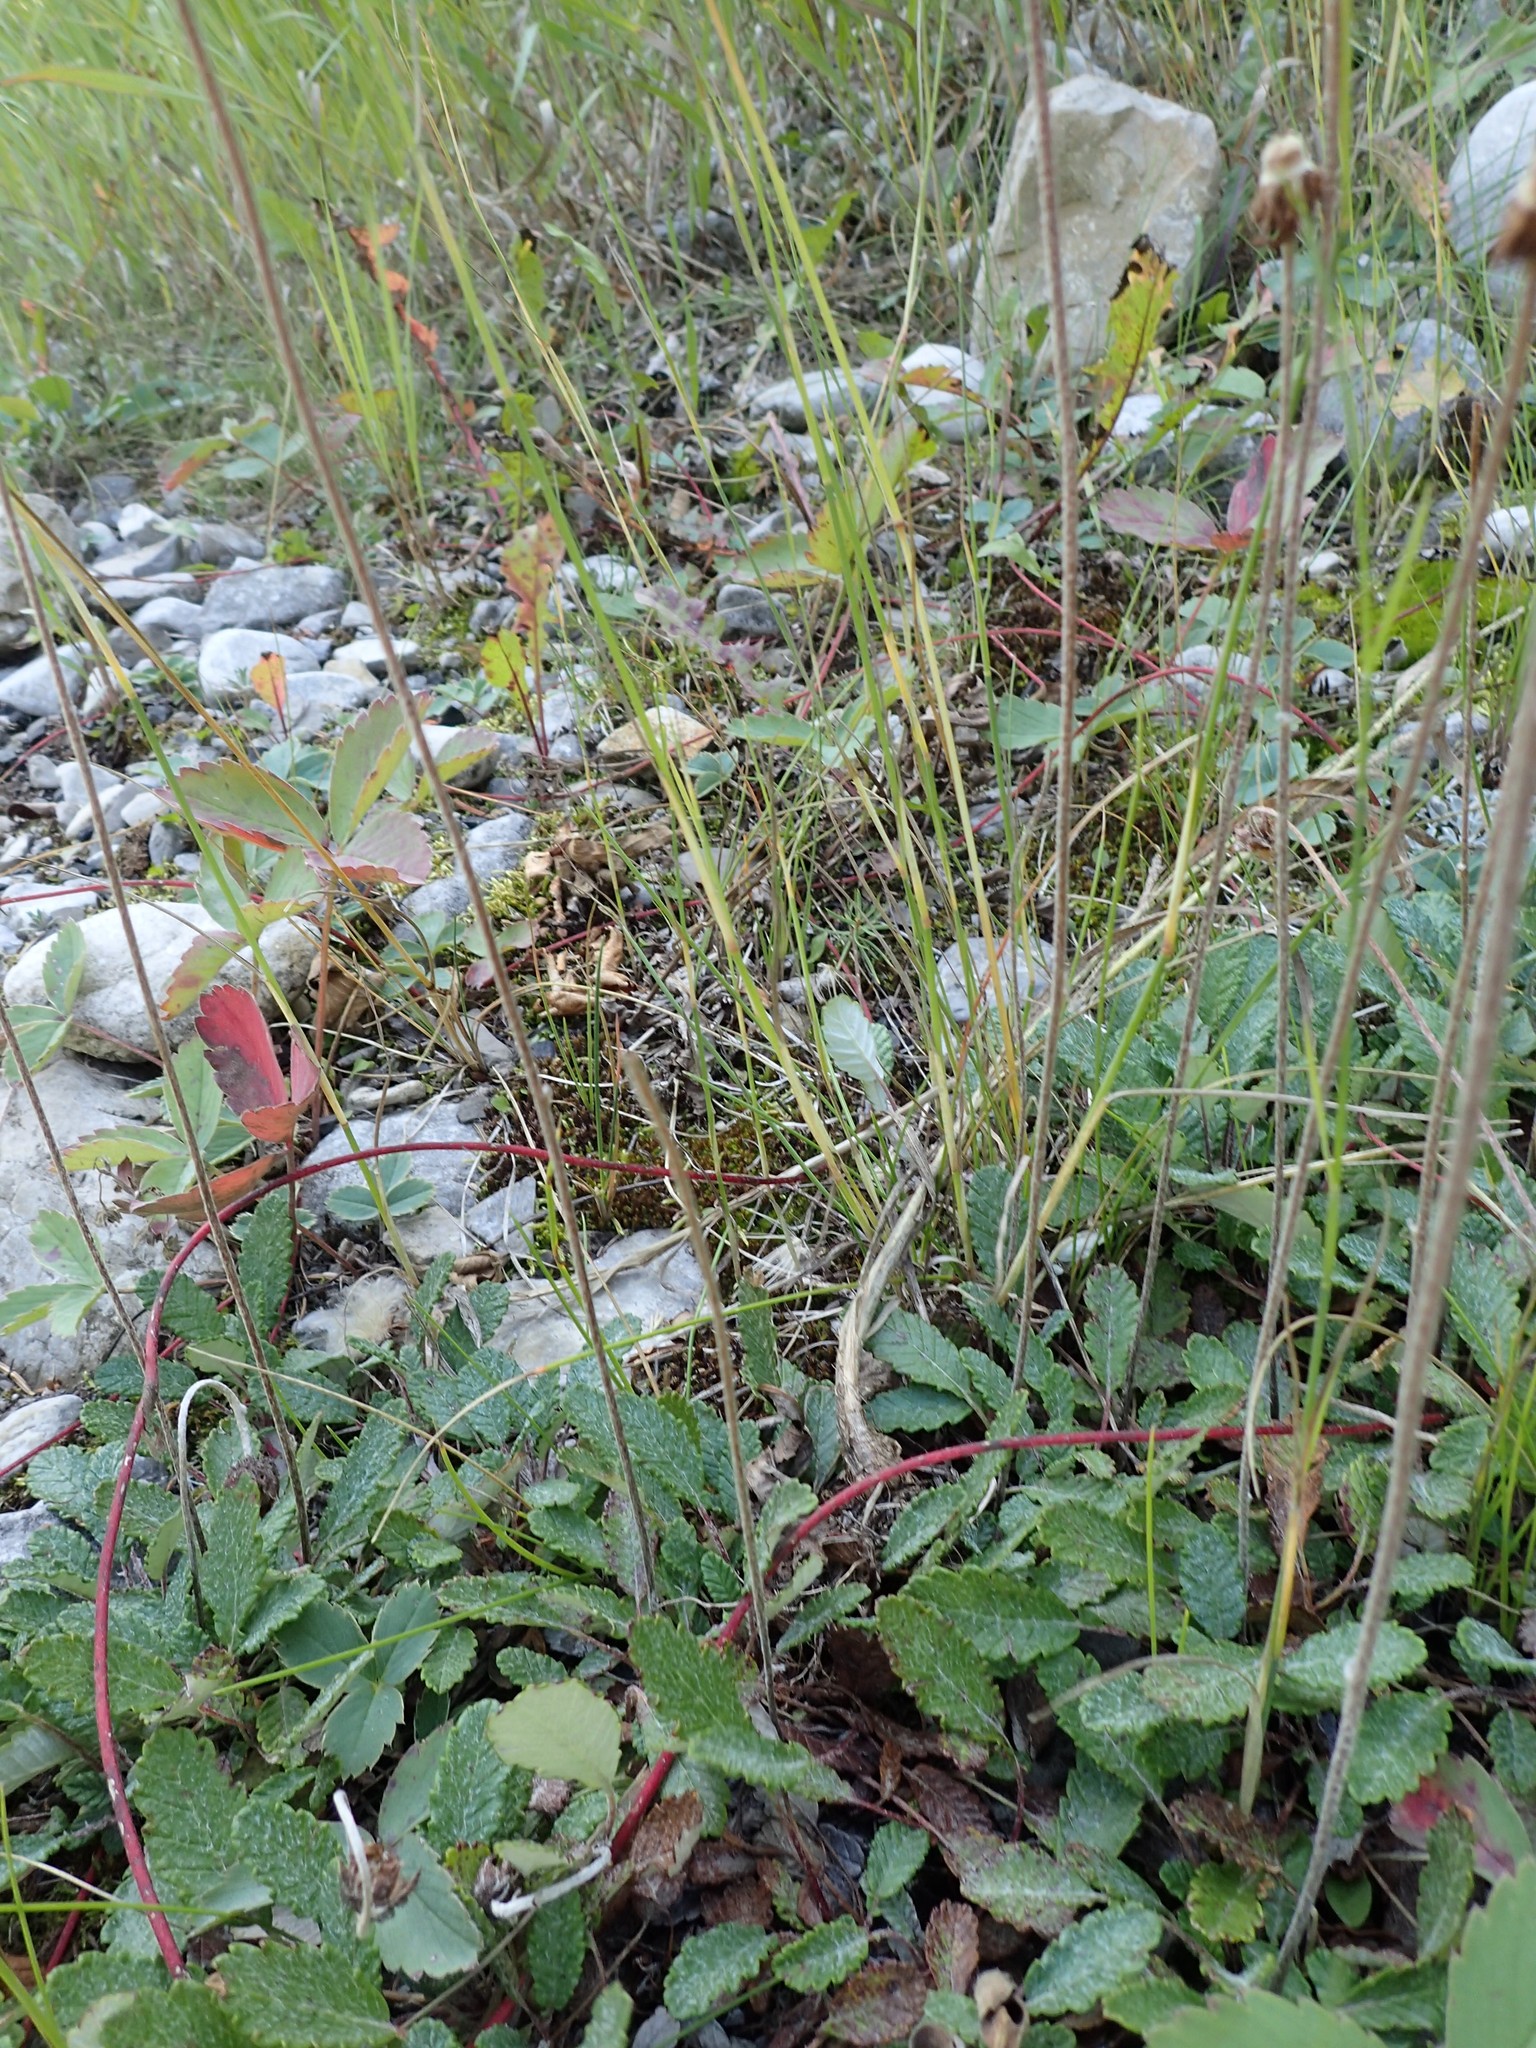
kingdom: Plantae
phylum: Tracheophyta
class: Magnoliopsida
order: Rosales
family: Rosaceae
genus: Dryas
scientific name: Dryas drummondii
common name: Drummond's dryad
